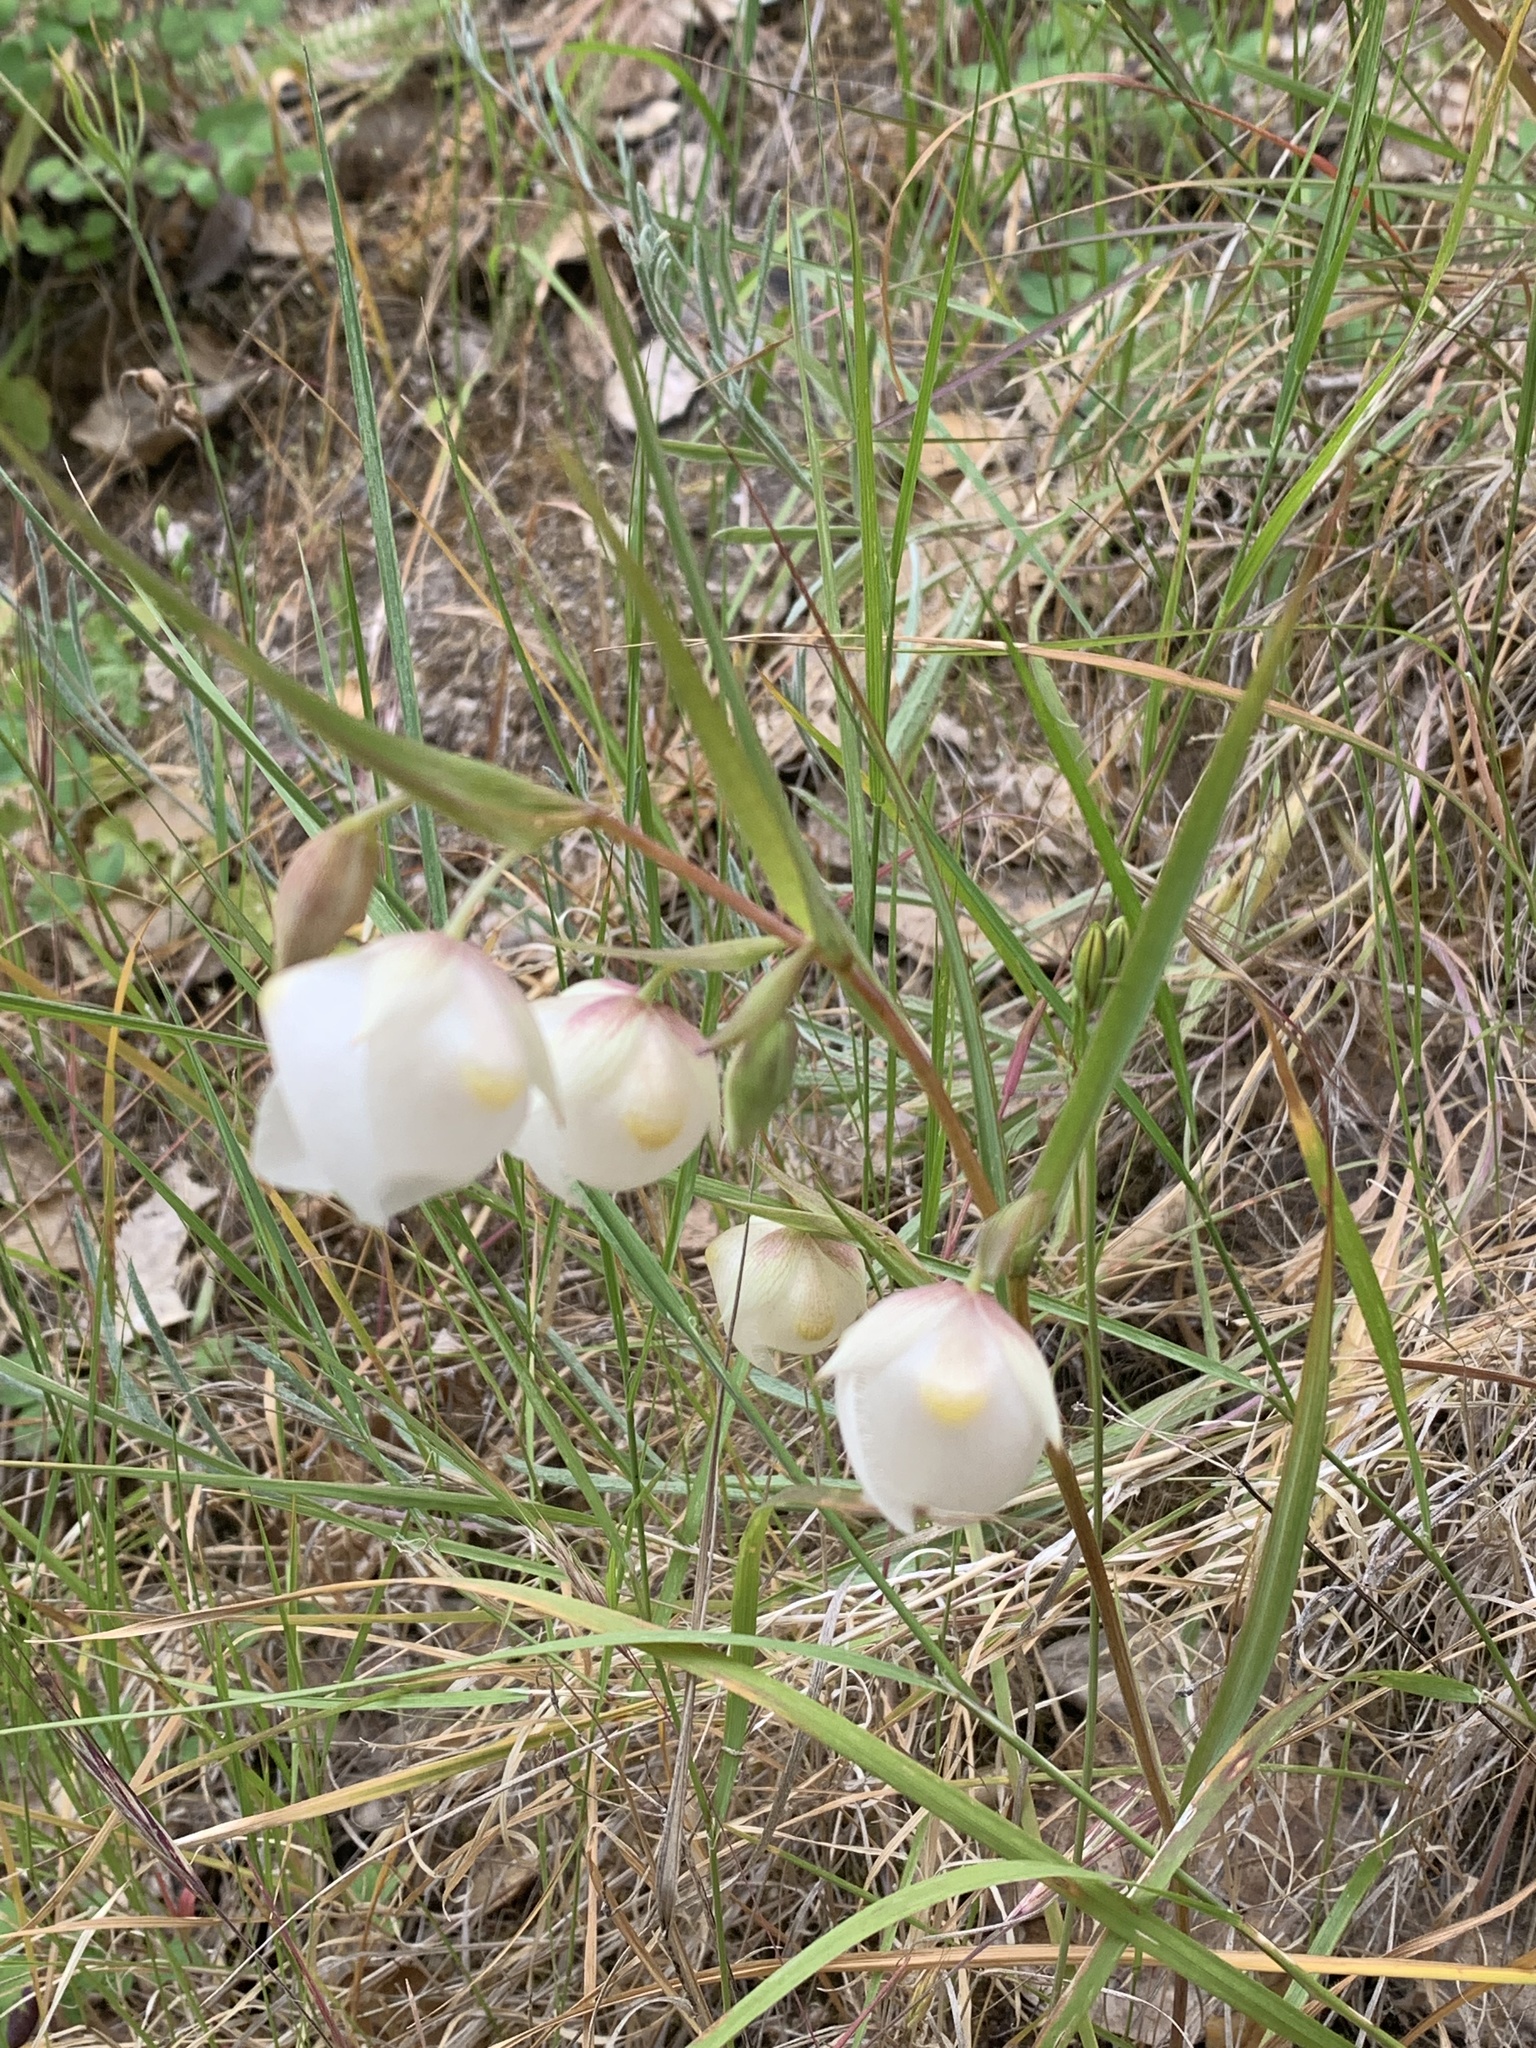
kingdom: Plantae
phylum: Tracheophyta
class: Liliopsida
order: Liliales
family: Liliaceae
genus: Calochortus
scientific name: Calochortus albus
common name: Fairy-lantern
